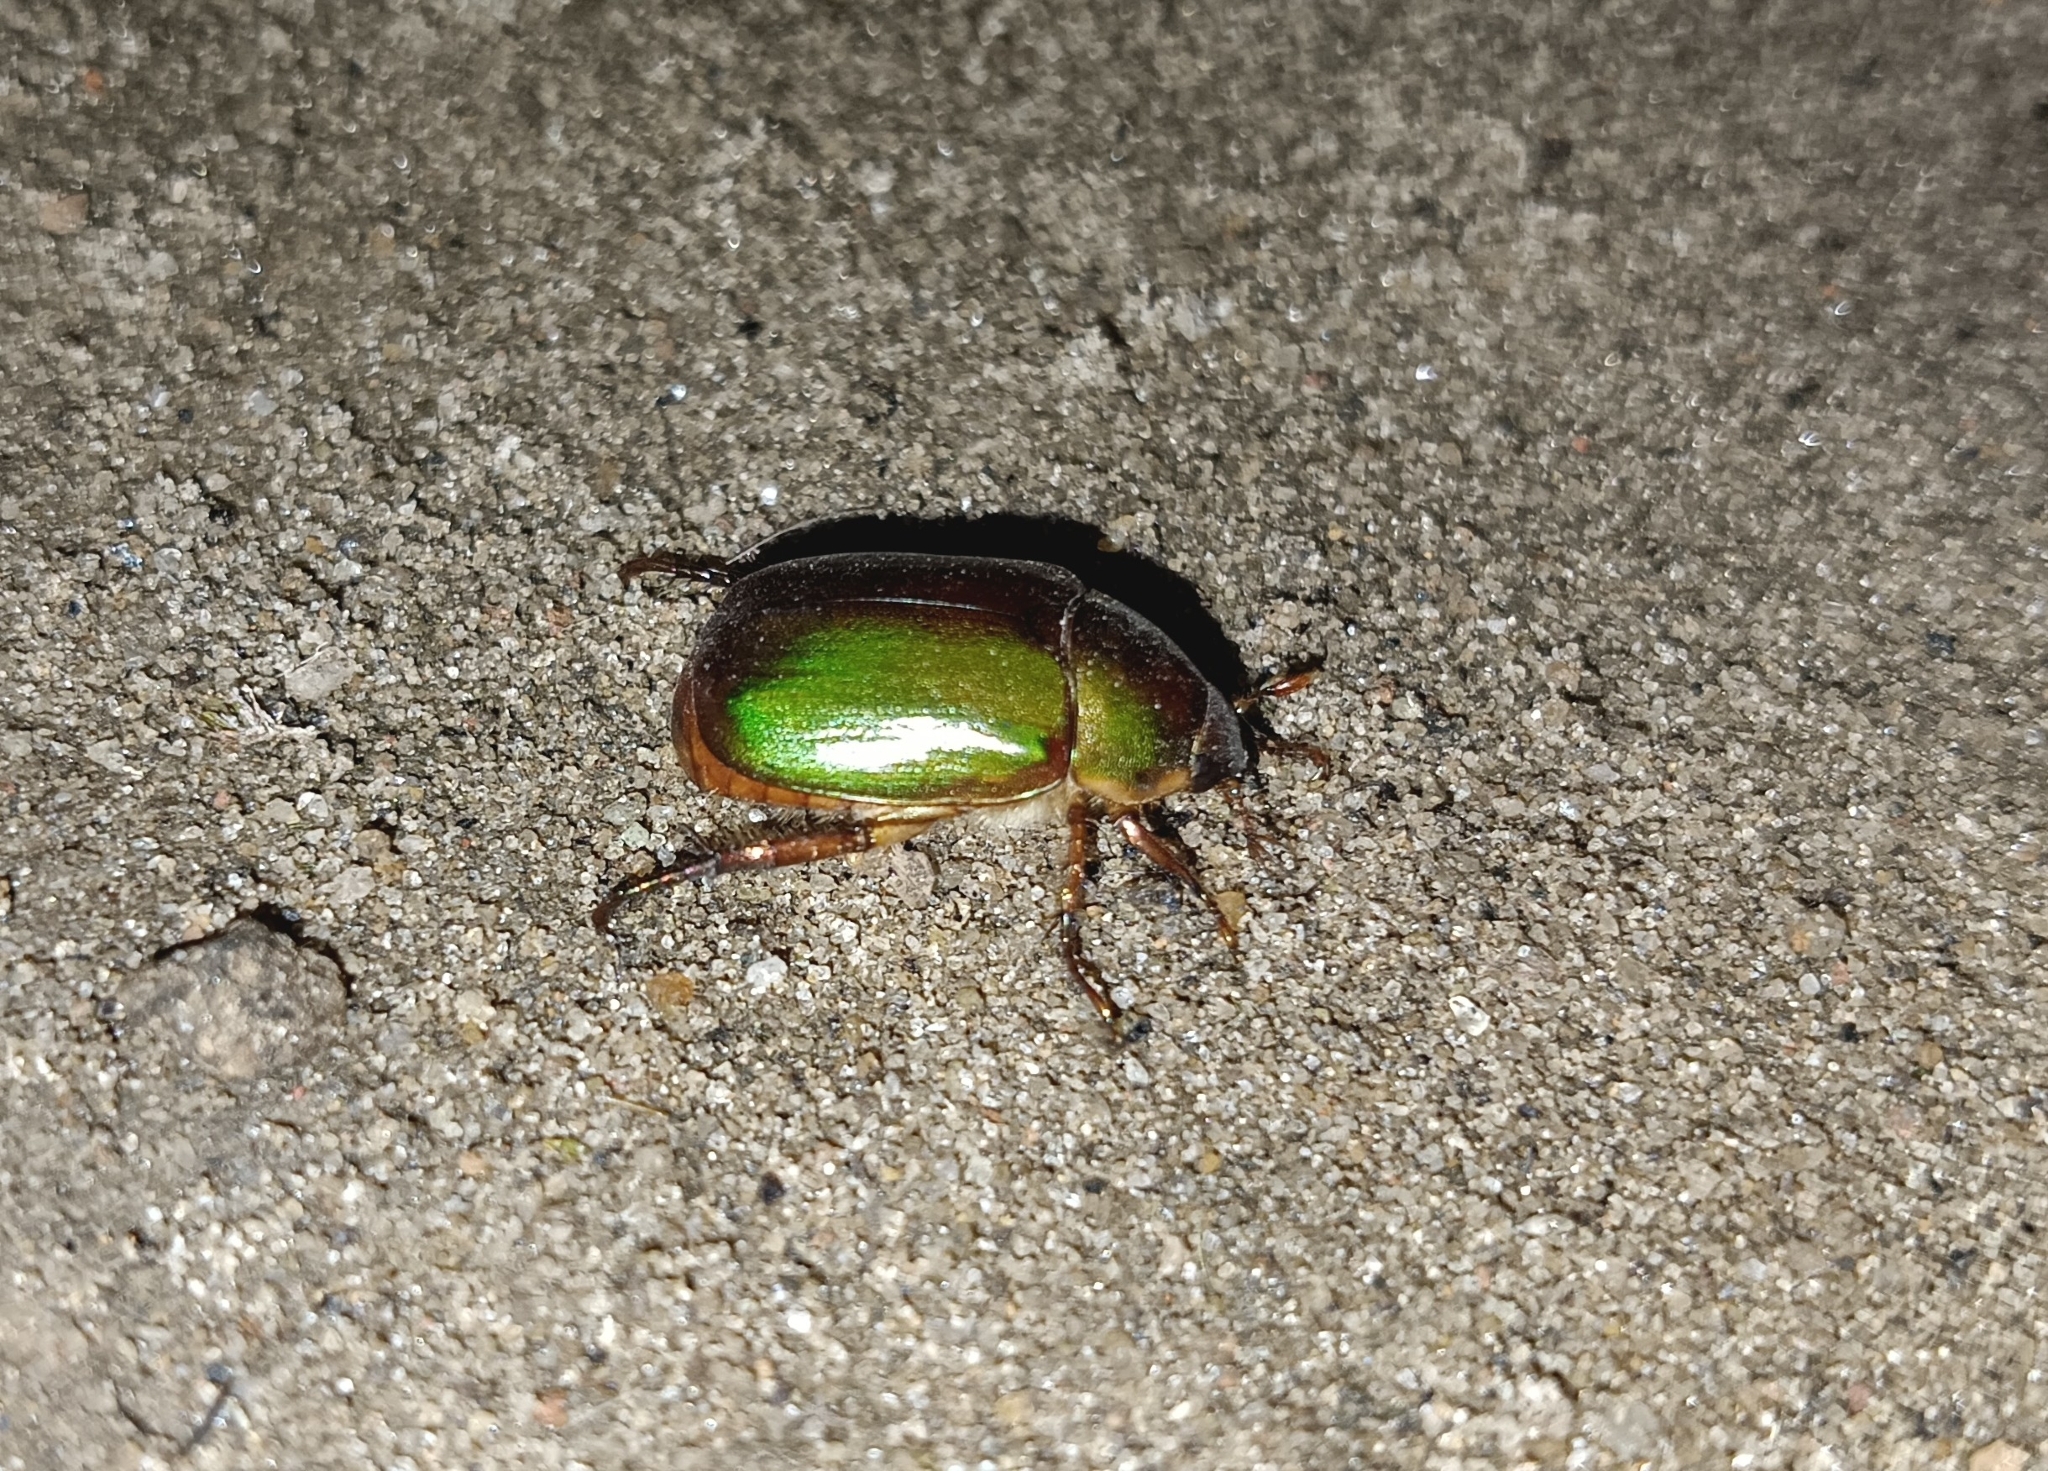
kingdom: Animalia
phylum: Arthropoda
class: Insecta
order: Coleoptera
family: Scarabaeidae
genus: Anomala
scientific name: Anomala albopilosa
